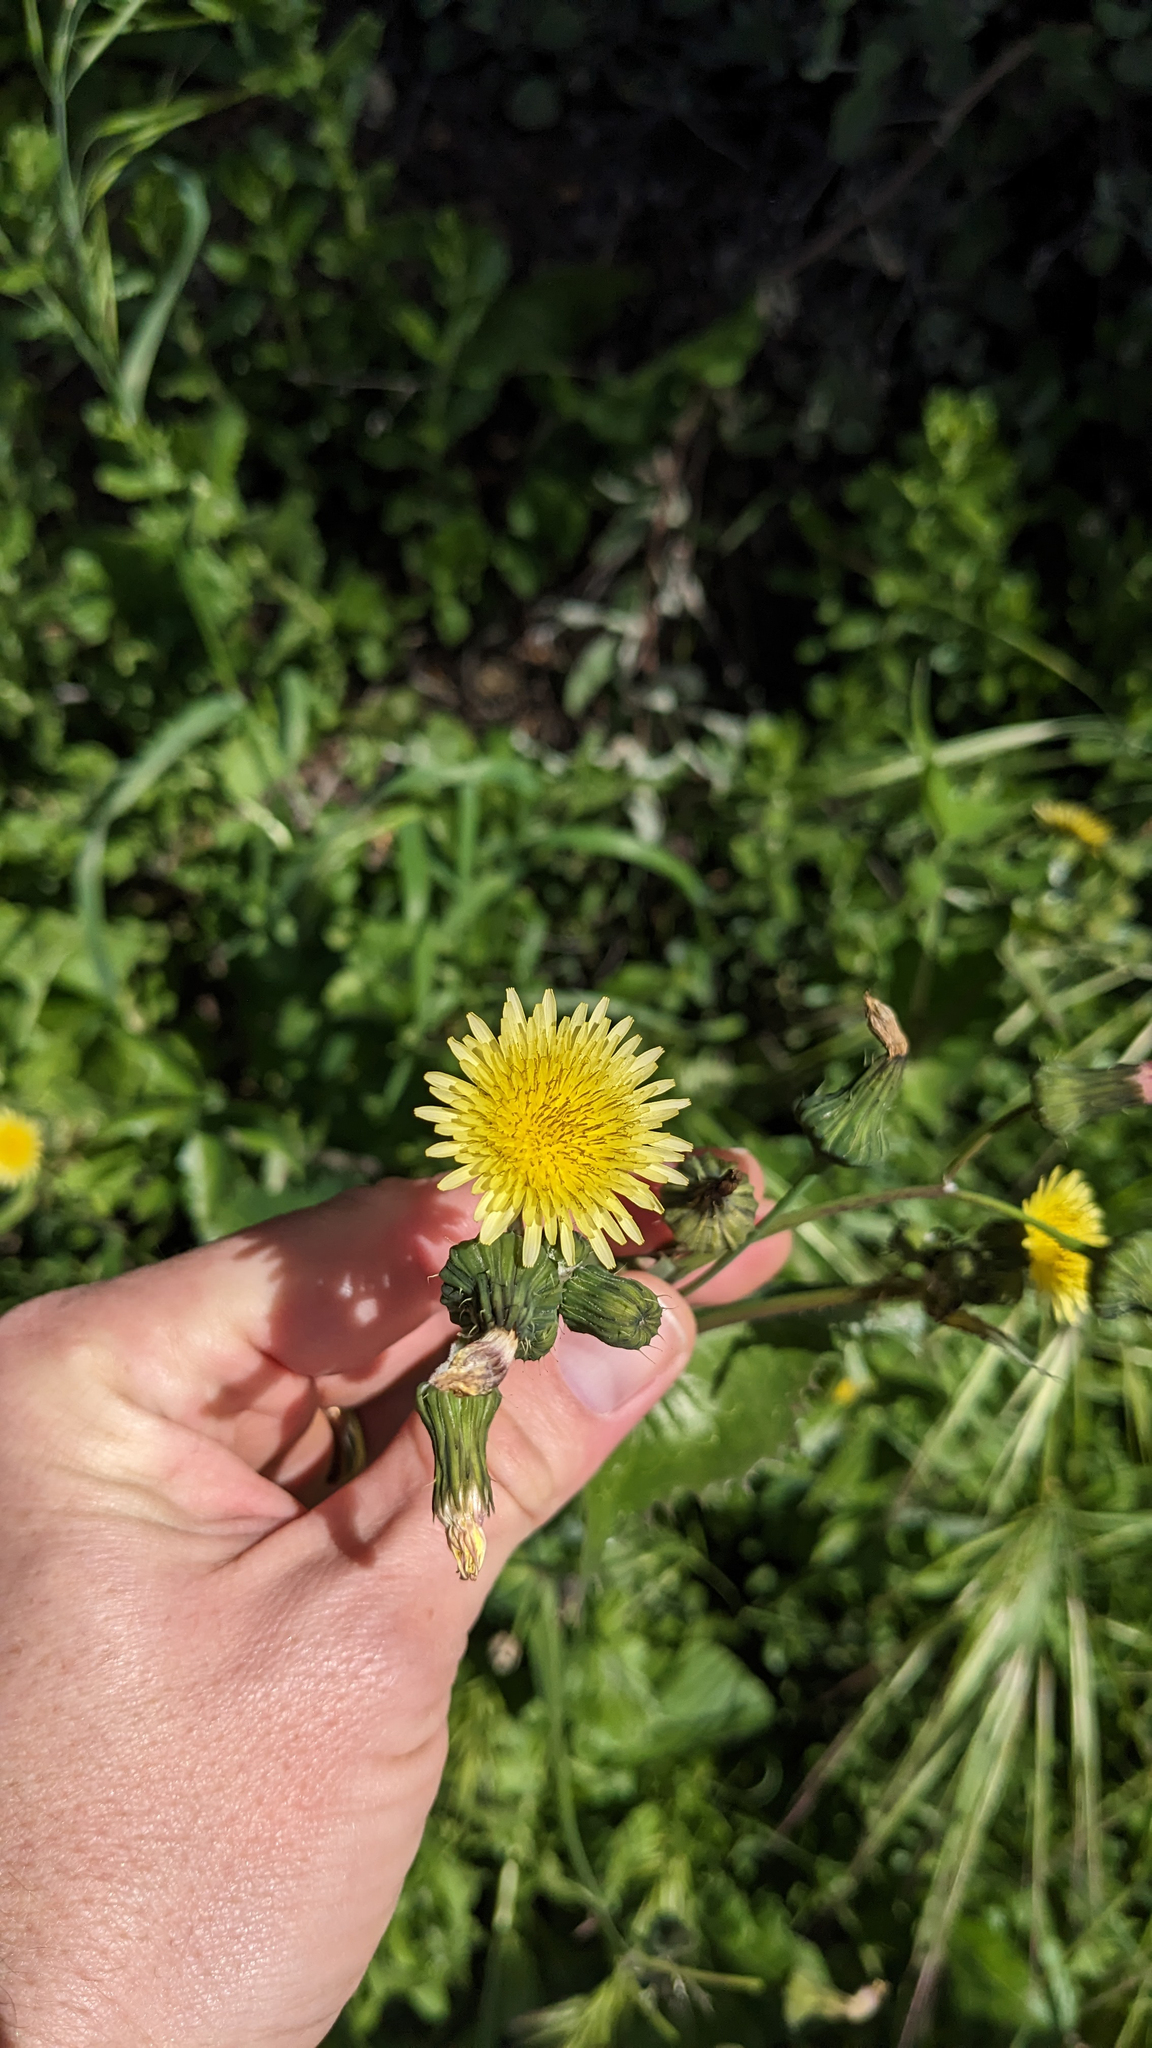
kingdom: Plantae
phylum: Tracheophyta
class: Magnoliopsida
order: Asterales
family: Asteraceae
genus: Sonchus
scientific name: Sonchus oleraceus
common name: Common sowthistle
